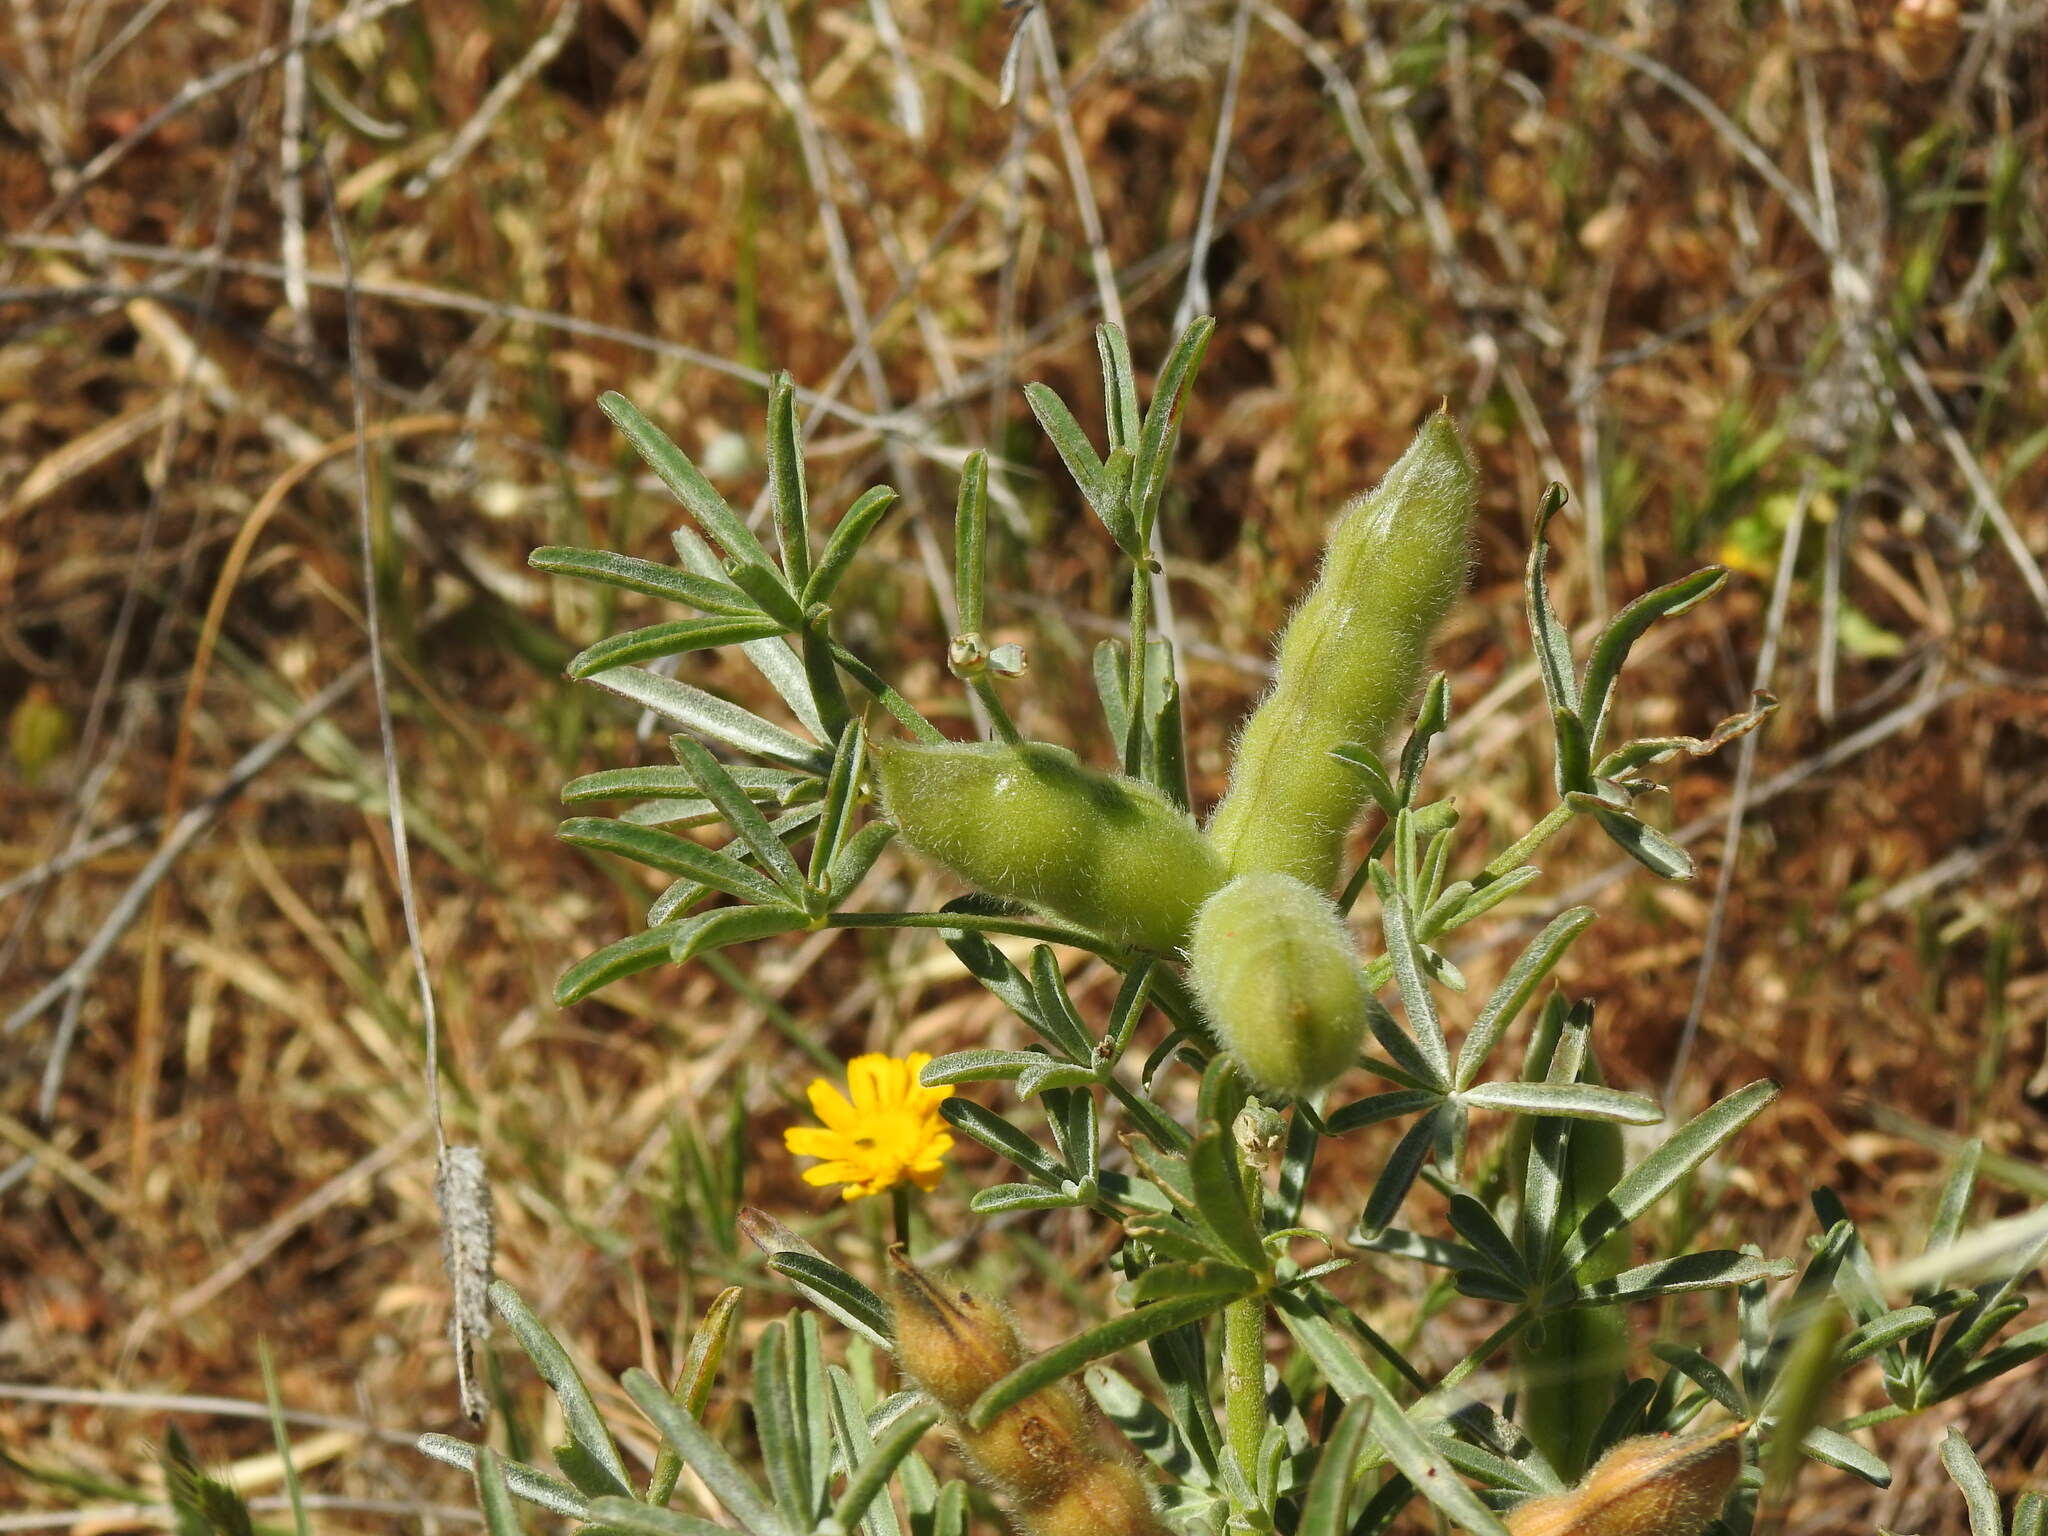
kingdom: Plantae
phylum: Tracheophyta
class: Magnoliopsida
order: Fabales
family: Fabaceae
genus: Lupinus
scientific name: Lupinus angustifolius
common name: Narrow-leaved lupin
